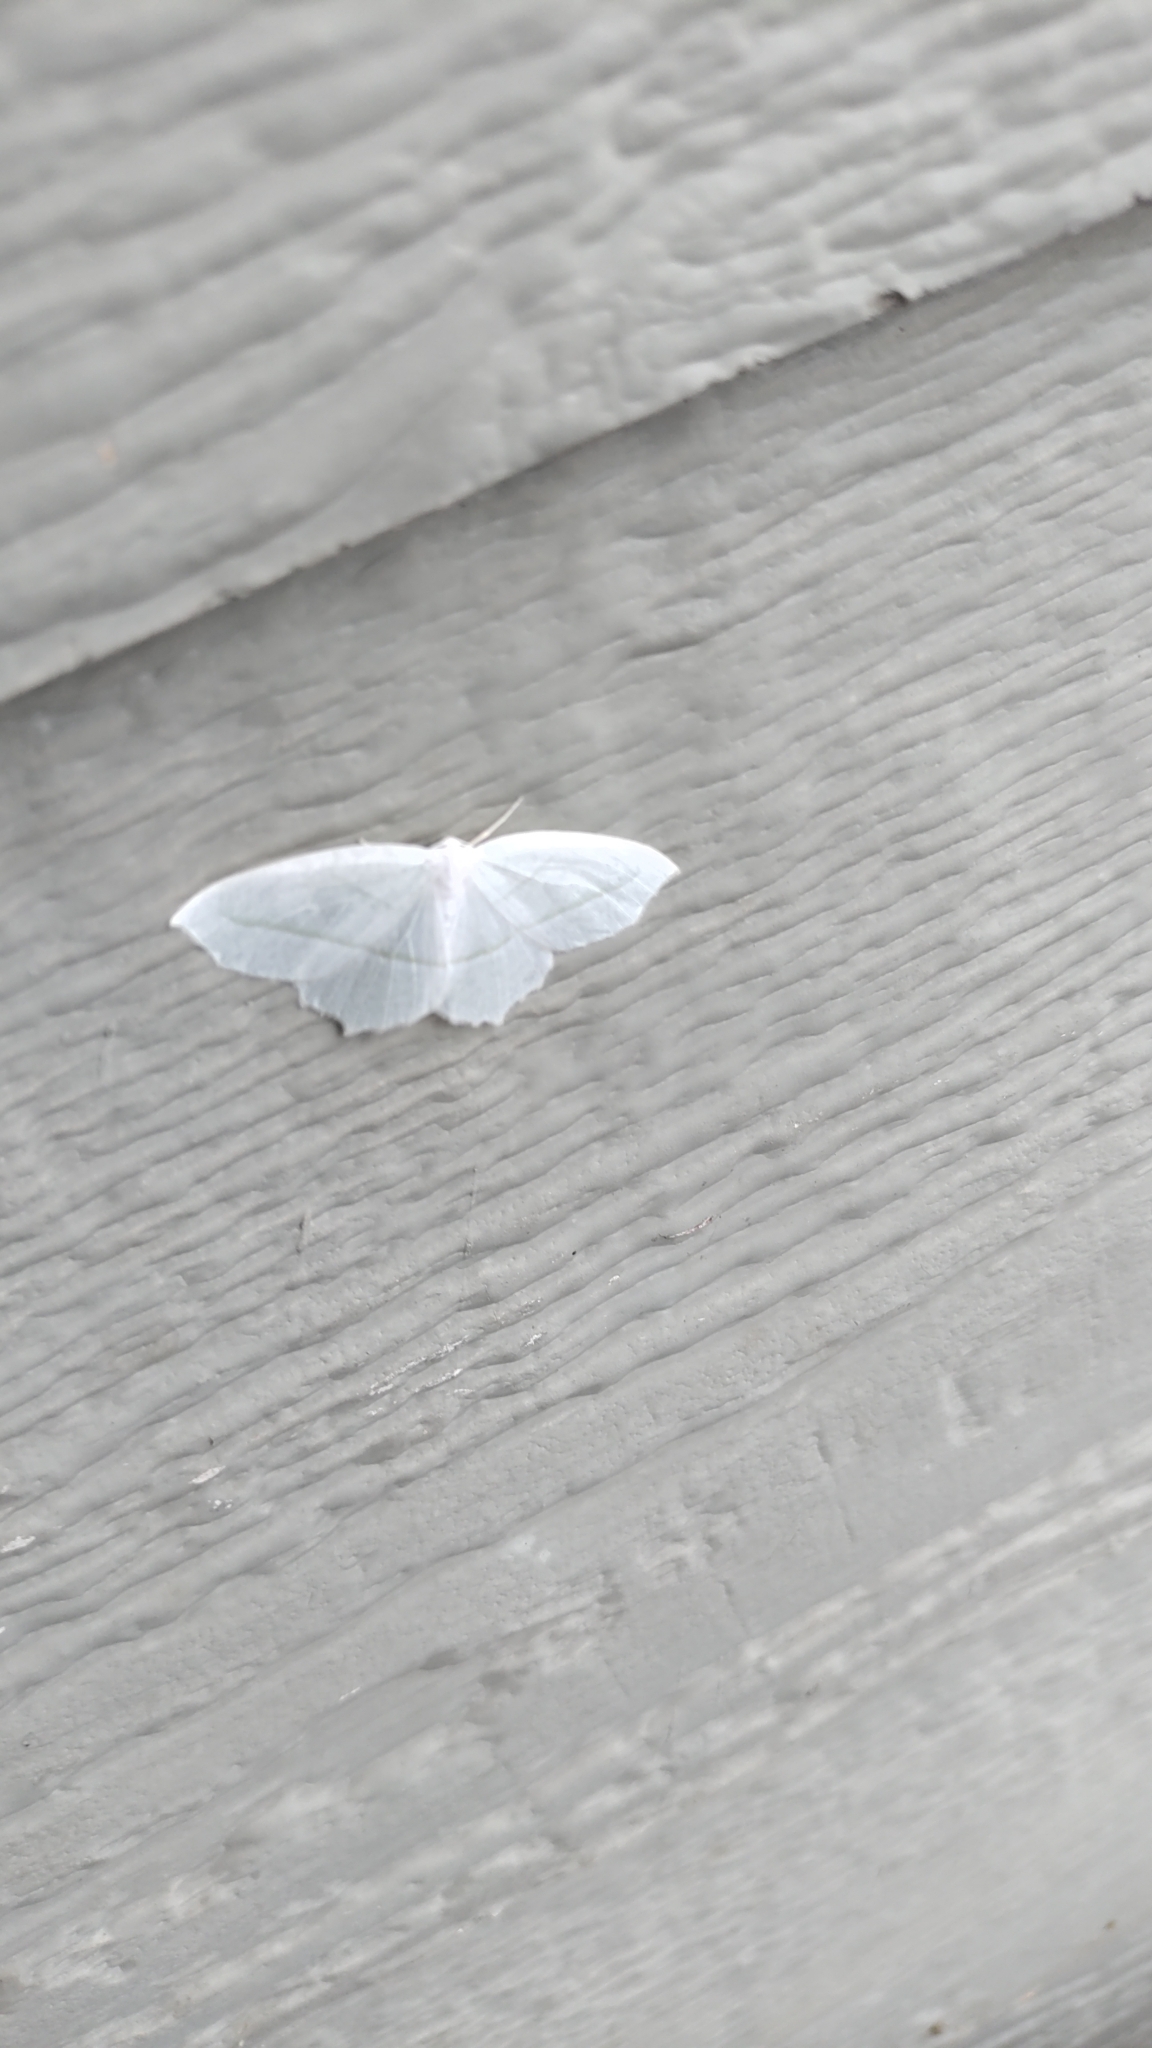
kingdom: Animalia
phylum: Arthropoda
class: Insecta
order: Lepidoptera
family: Geometridae
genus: Campaea
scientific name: Campaea perlata
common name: Fringed looper
